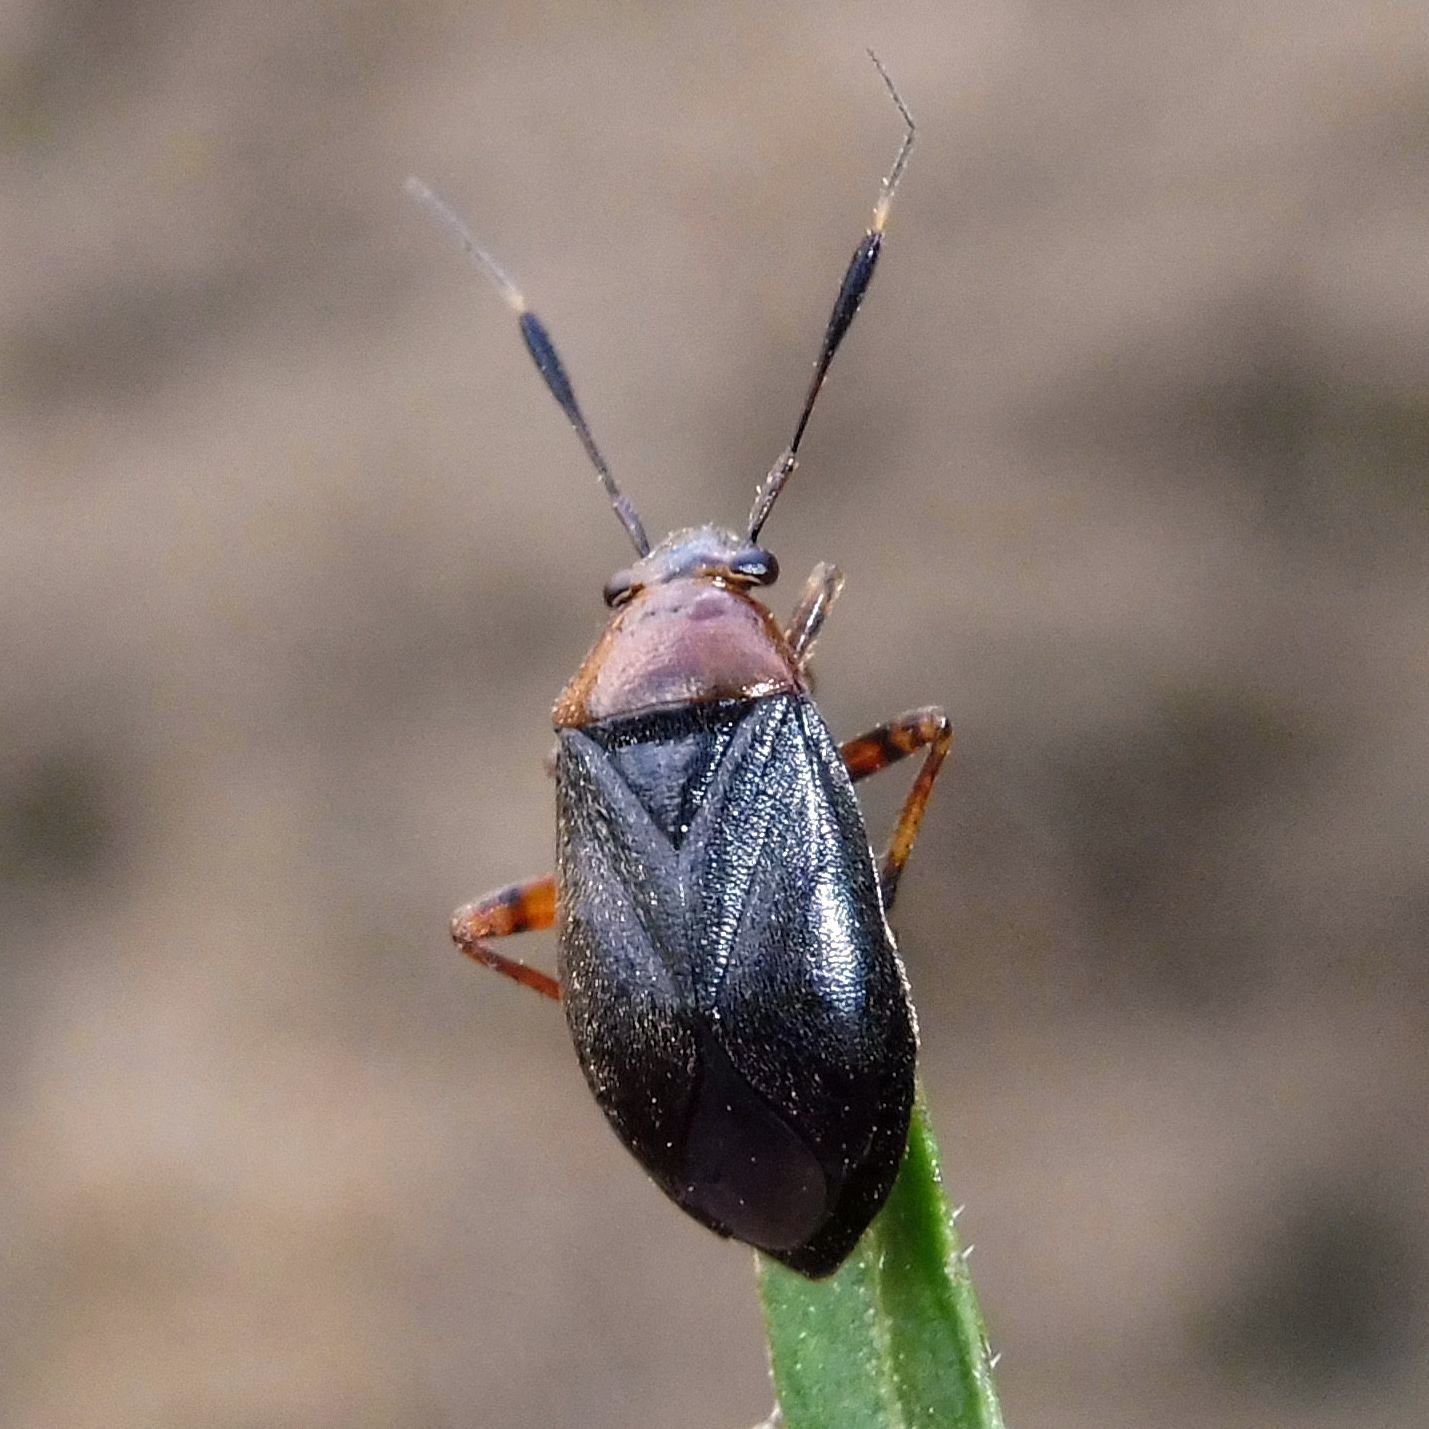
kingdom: Animalia
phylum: Arthropoda
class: Insecta
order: Hemiptera
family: Miridae
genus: Capsus
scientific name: Capsus ater
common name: Black plant bug
